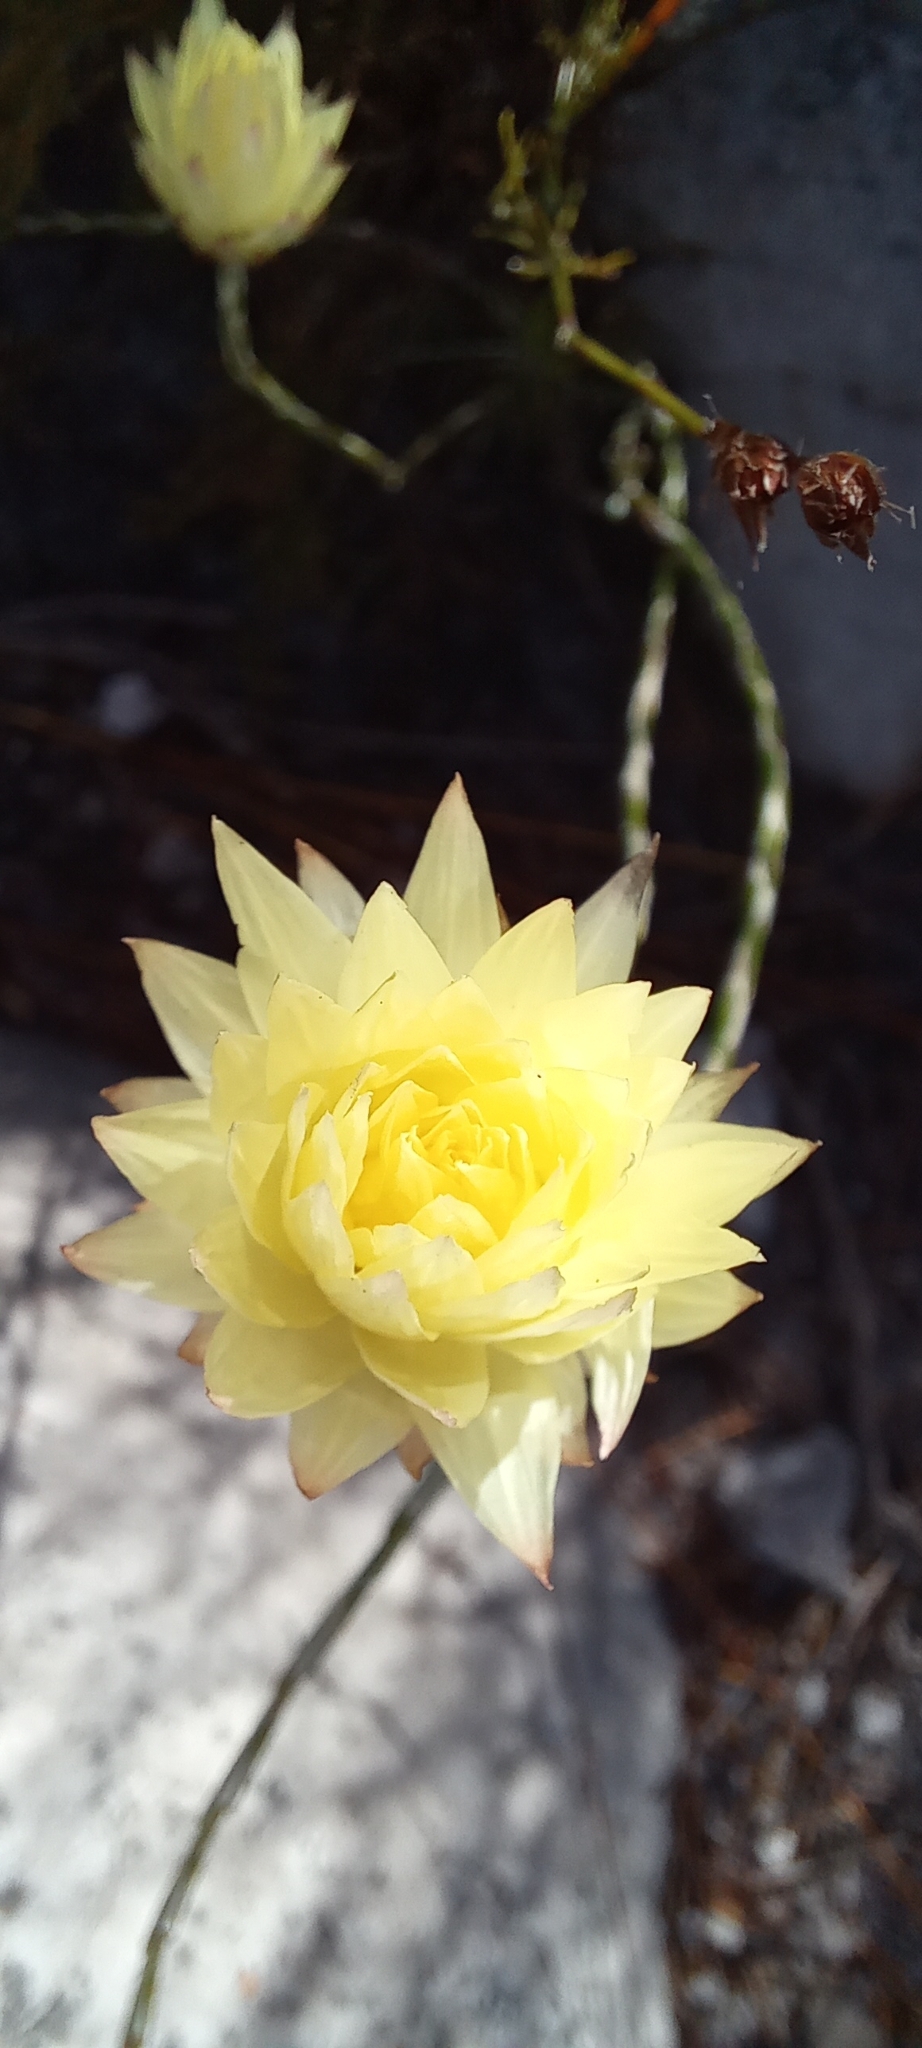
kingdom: Plantae
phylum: Tracheophyta
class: Magnoliopsida
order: Asterales
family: Asteraceae
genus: Edmondia
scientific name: Edmondia sesamoides
